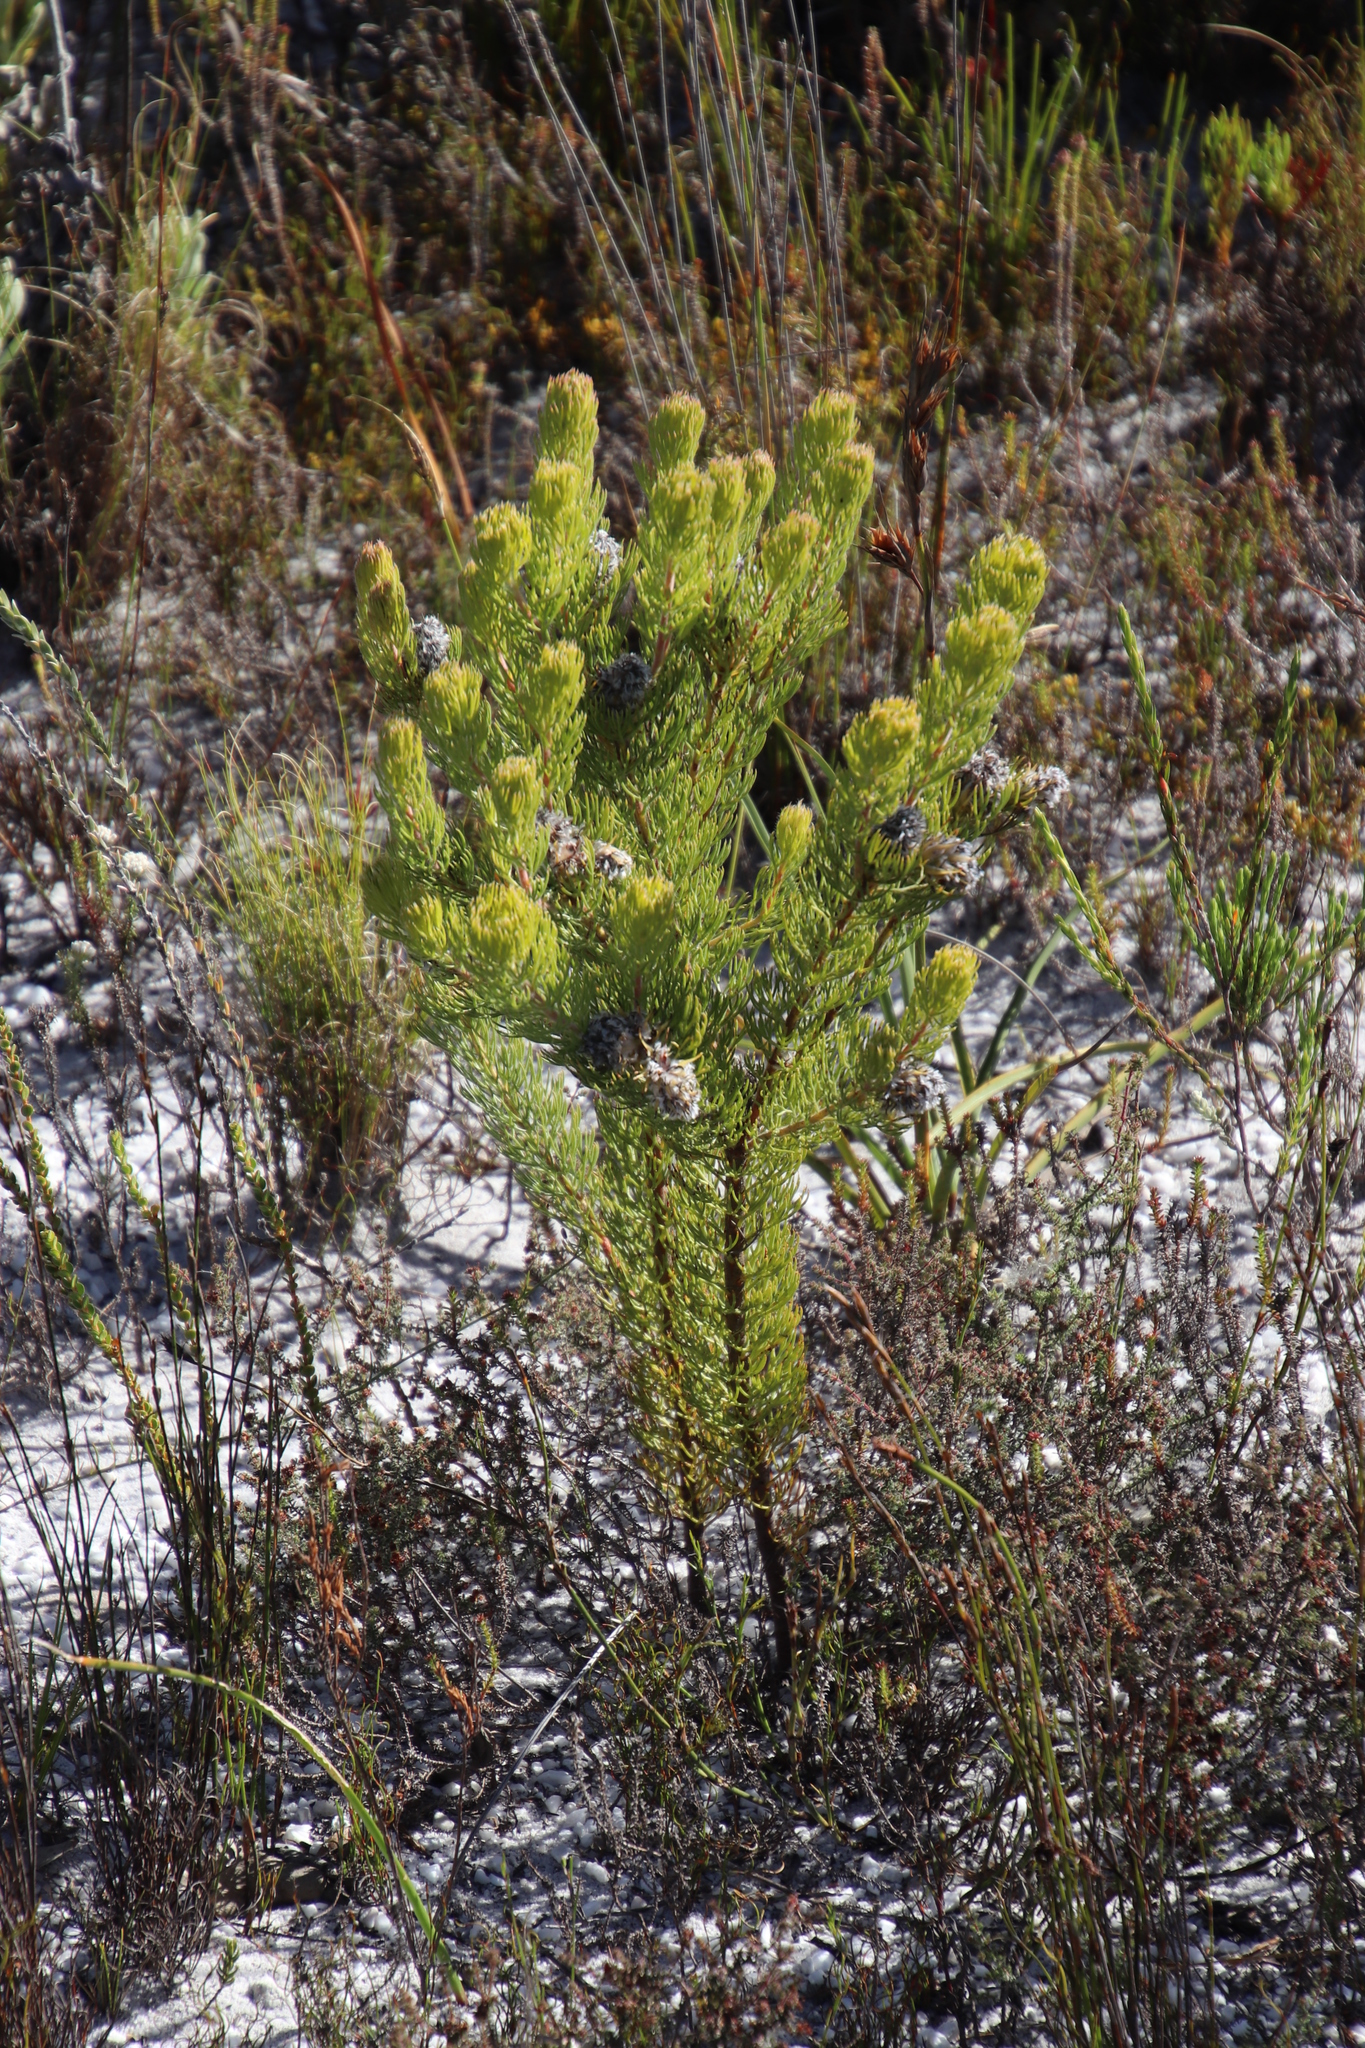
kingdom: Plantae
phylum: Tracheophyta
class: Magnoliopsida
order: Proteales
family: Proteaceae
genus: Serruria
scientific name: Serruria villosa
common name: Golden spiderhead
